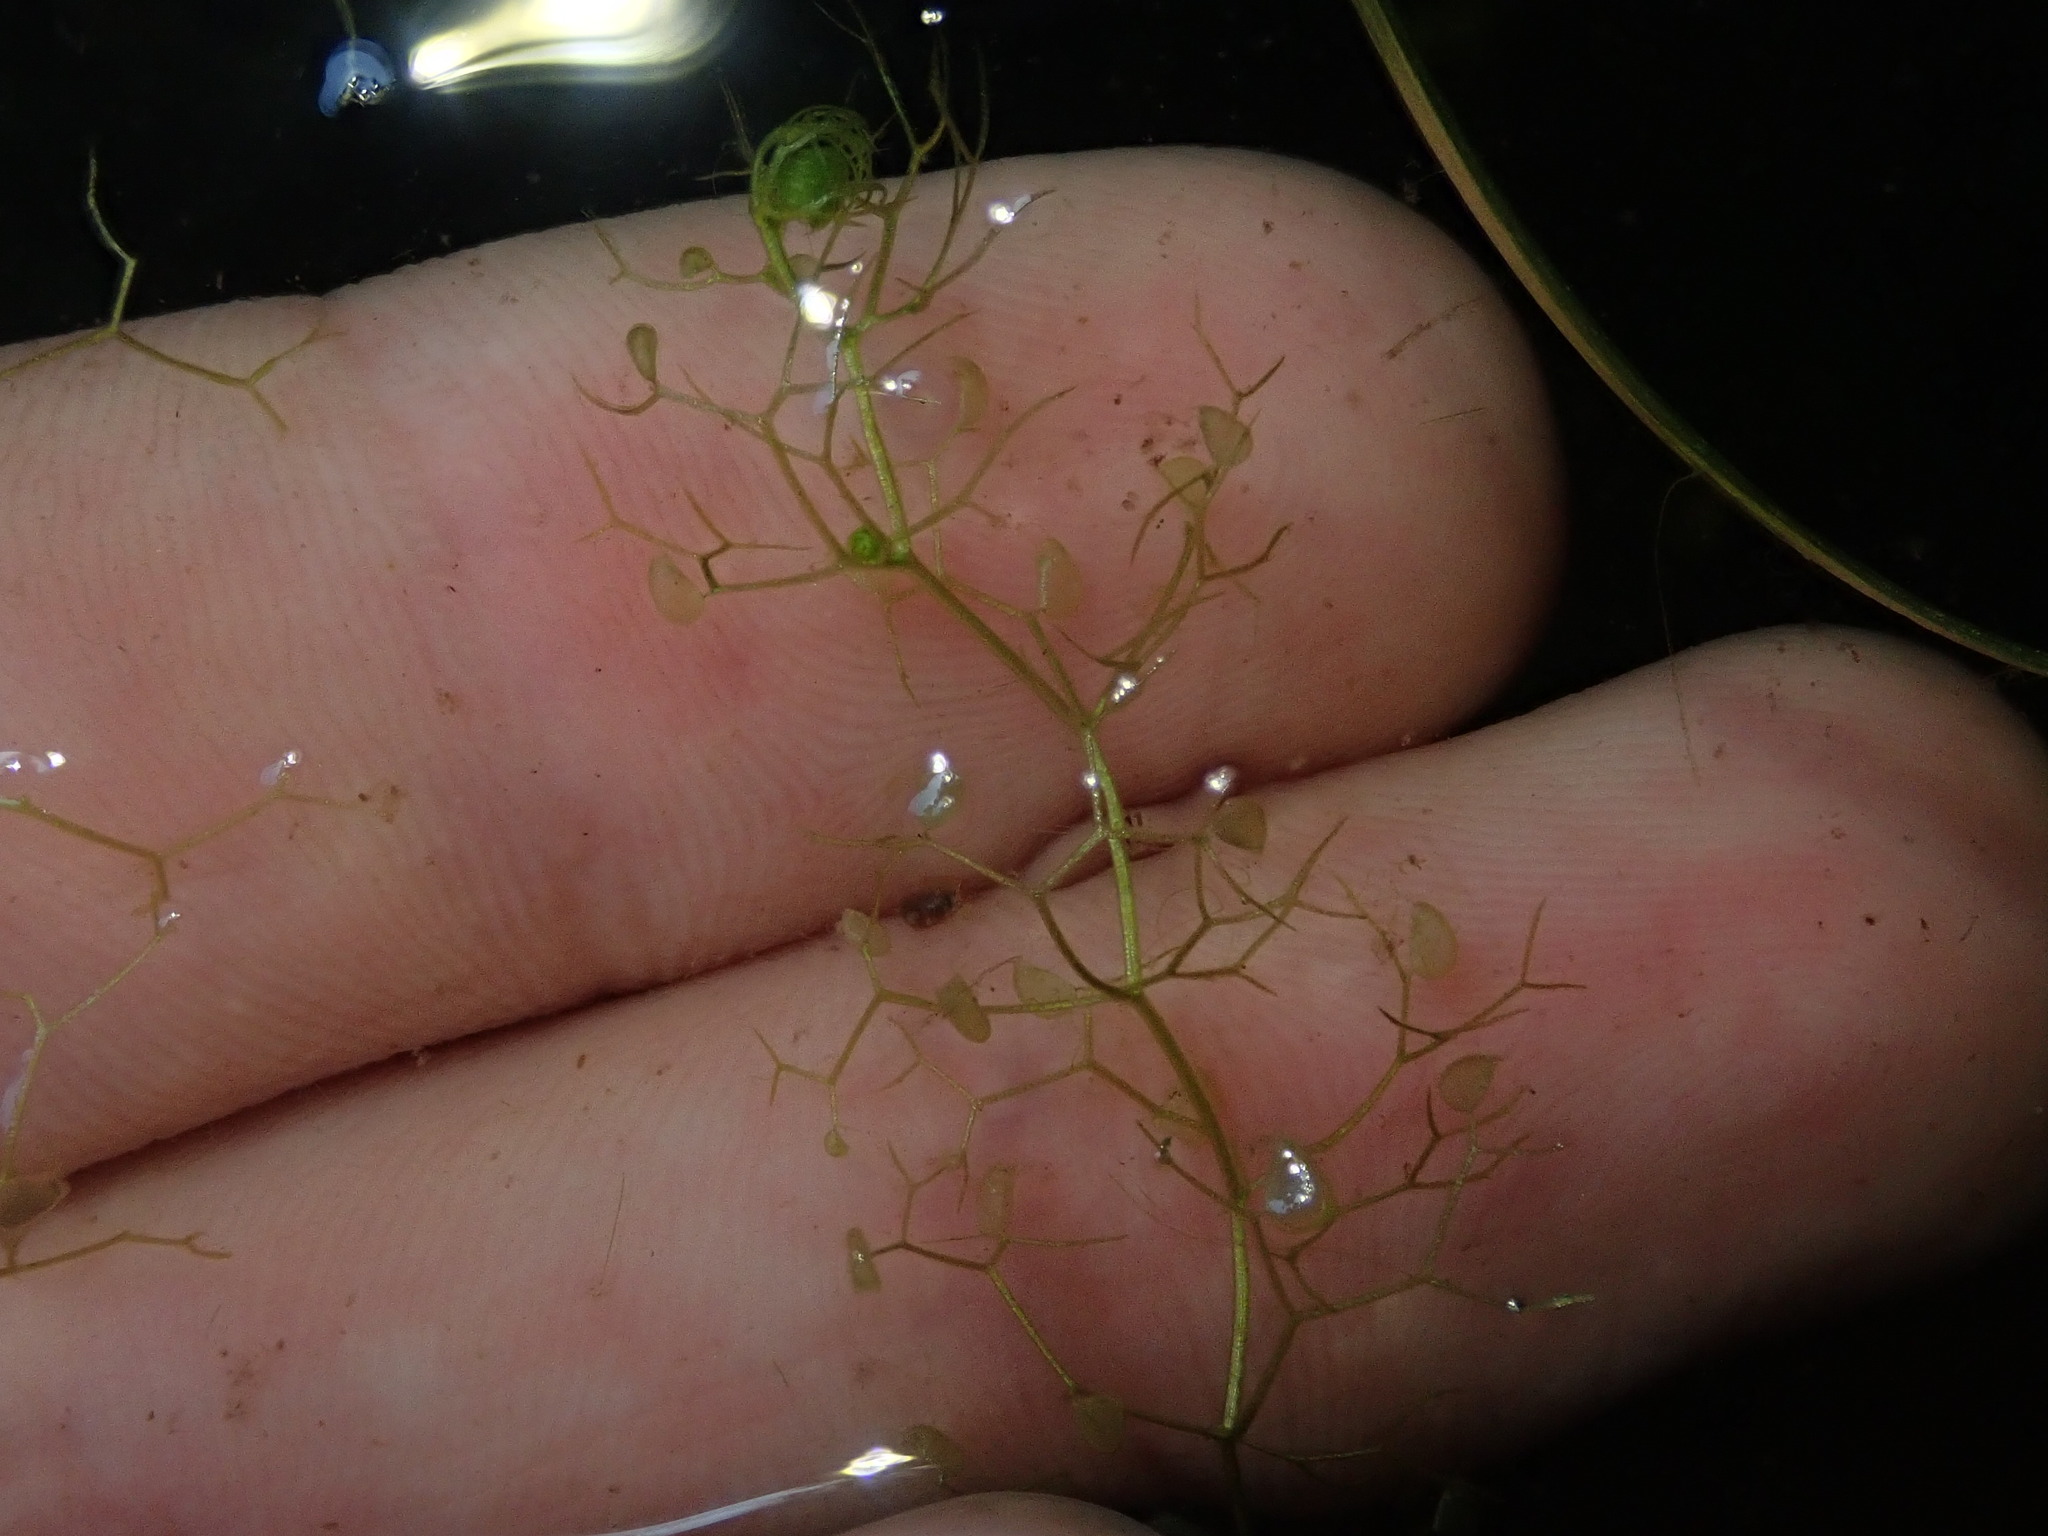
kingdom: Plantae
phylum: Tracheophyta
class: Magnoliopsida
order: Lamiales
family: Lentibulariaceae
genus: Utricularia
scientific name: Utricularia minor
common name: Lesser bladderwort
